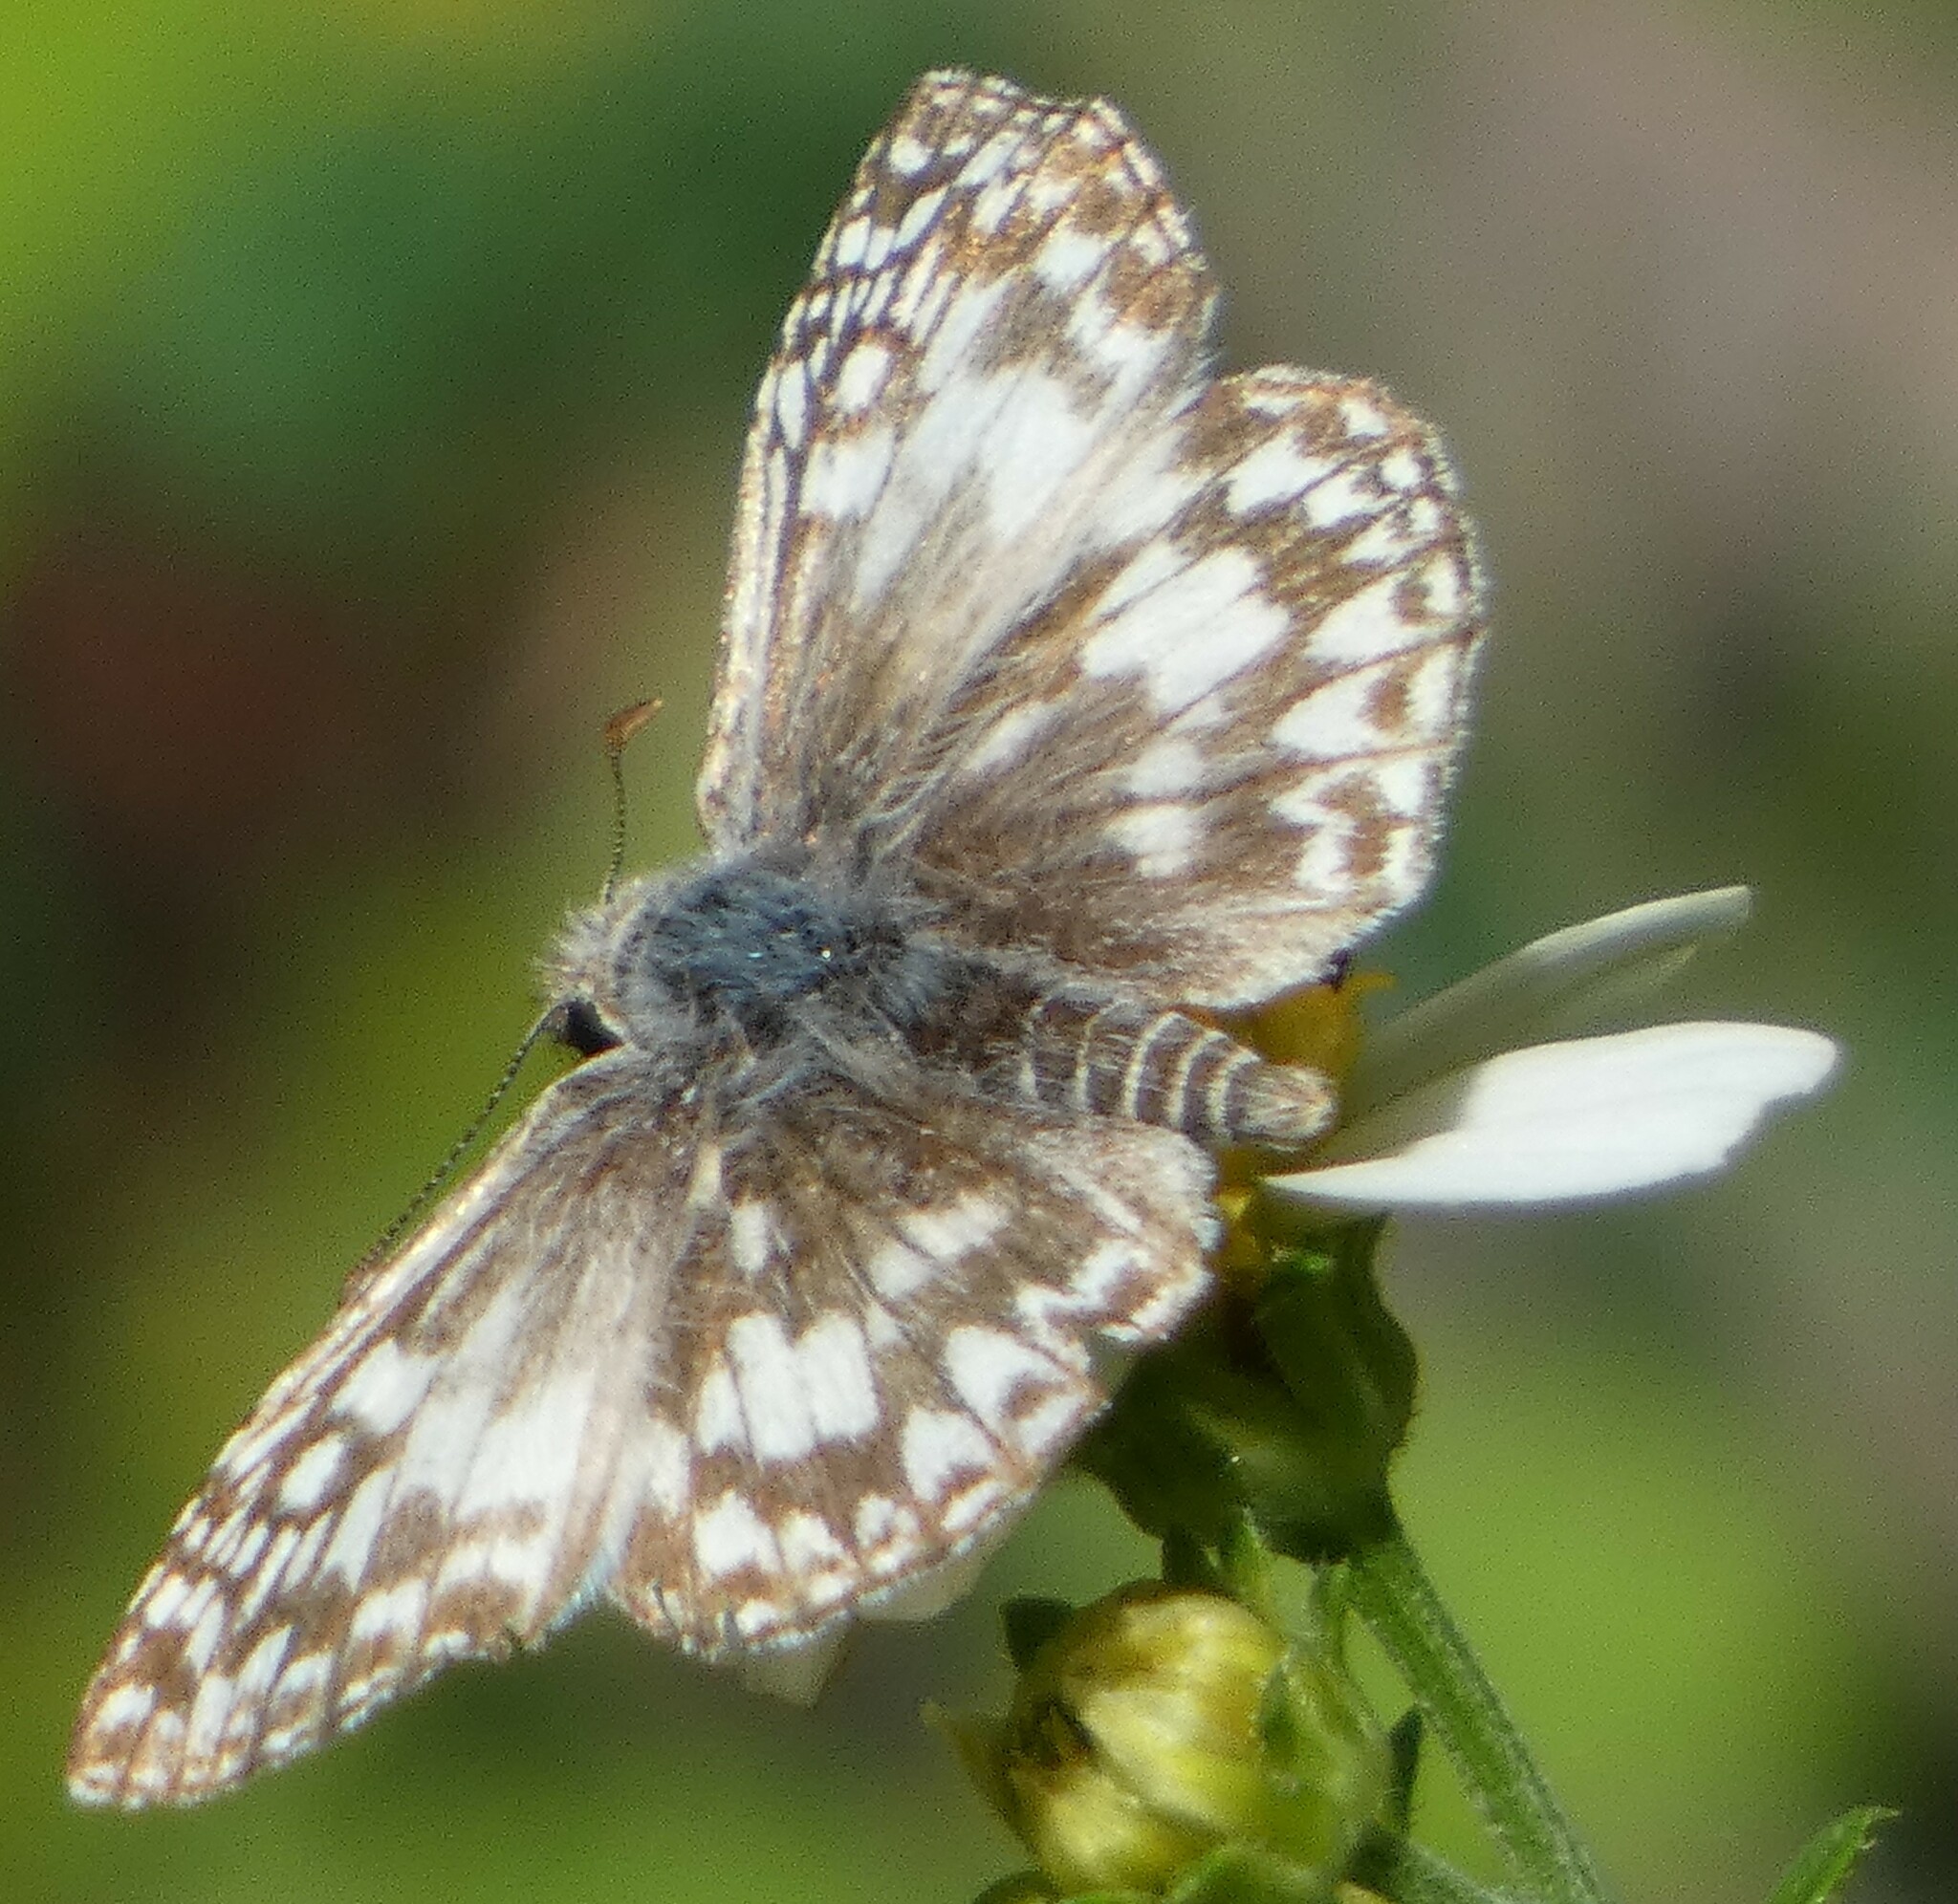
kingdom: Animalia
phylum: Arthropoda
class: Insecta
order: Lepidoptera
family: Hesperiidae
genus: Pyrgus
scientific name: Pyrgus oileus
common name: Tropical checkered-skipper
